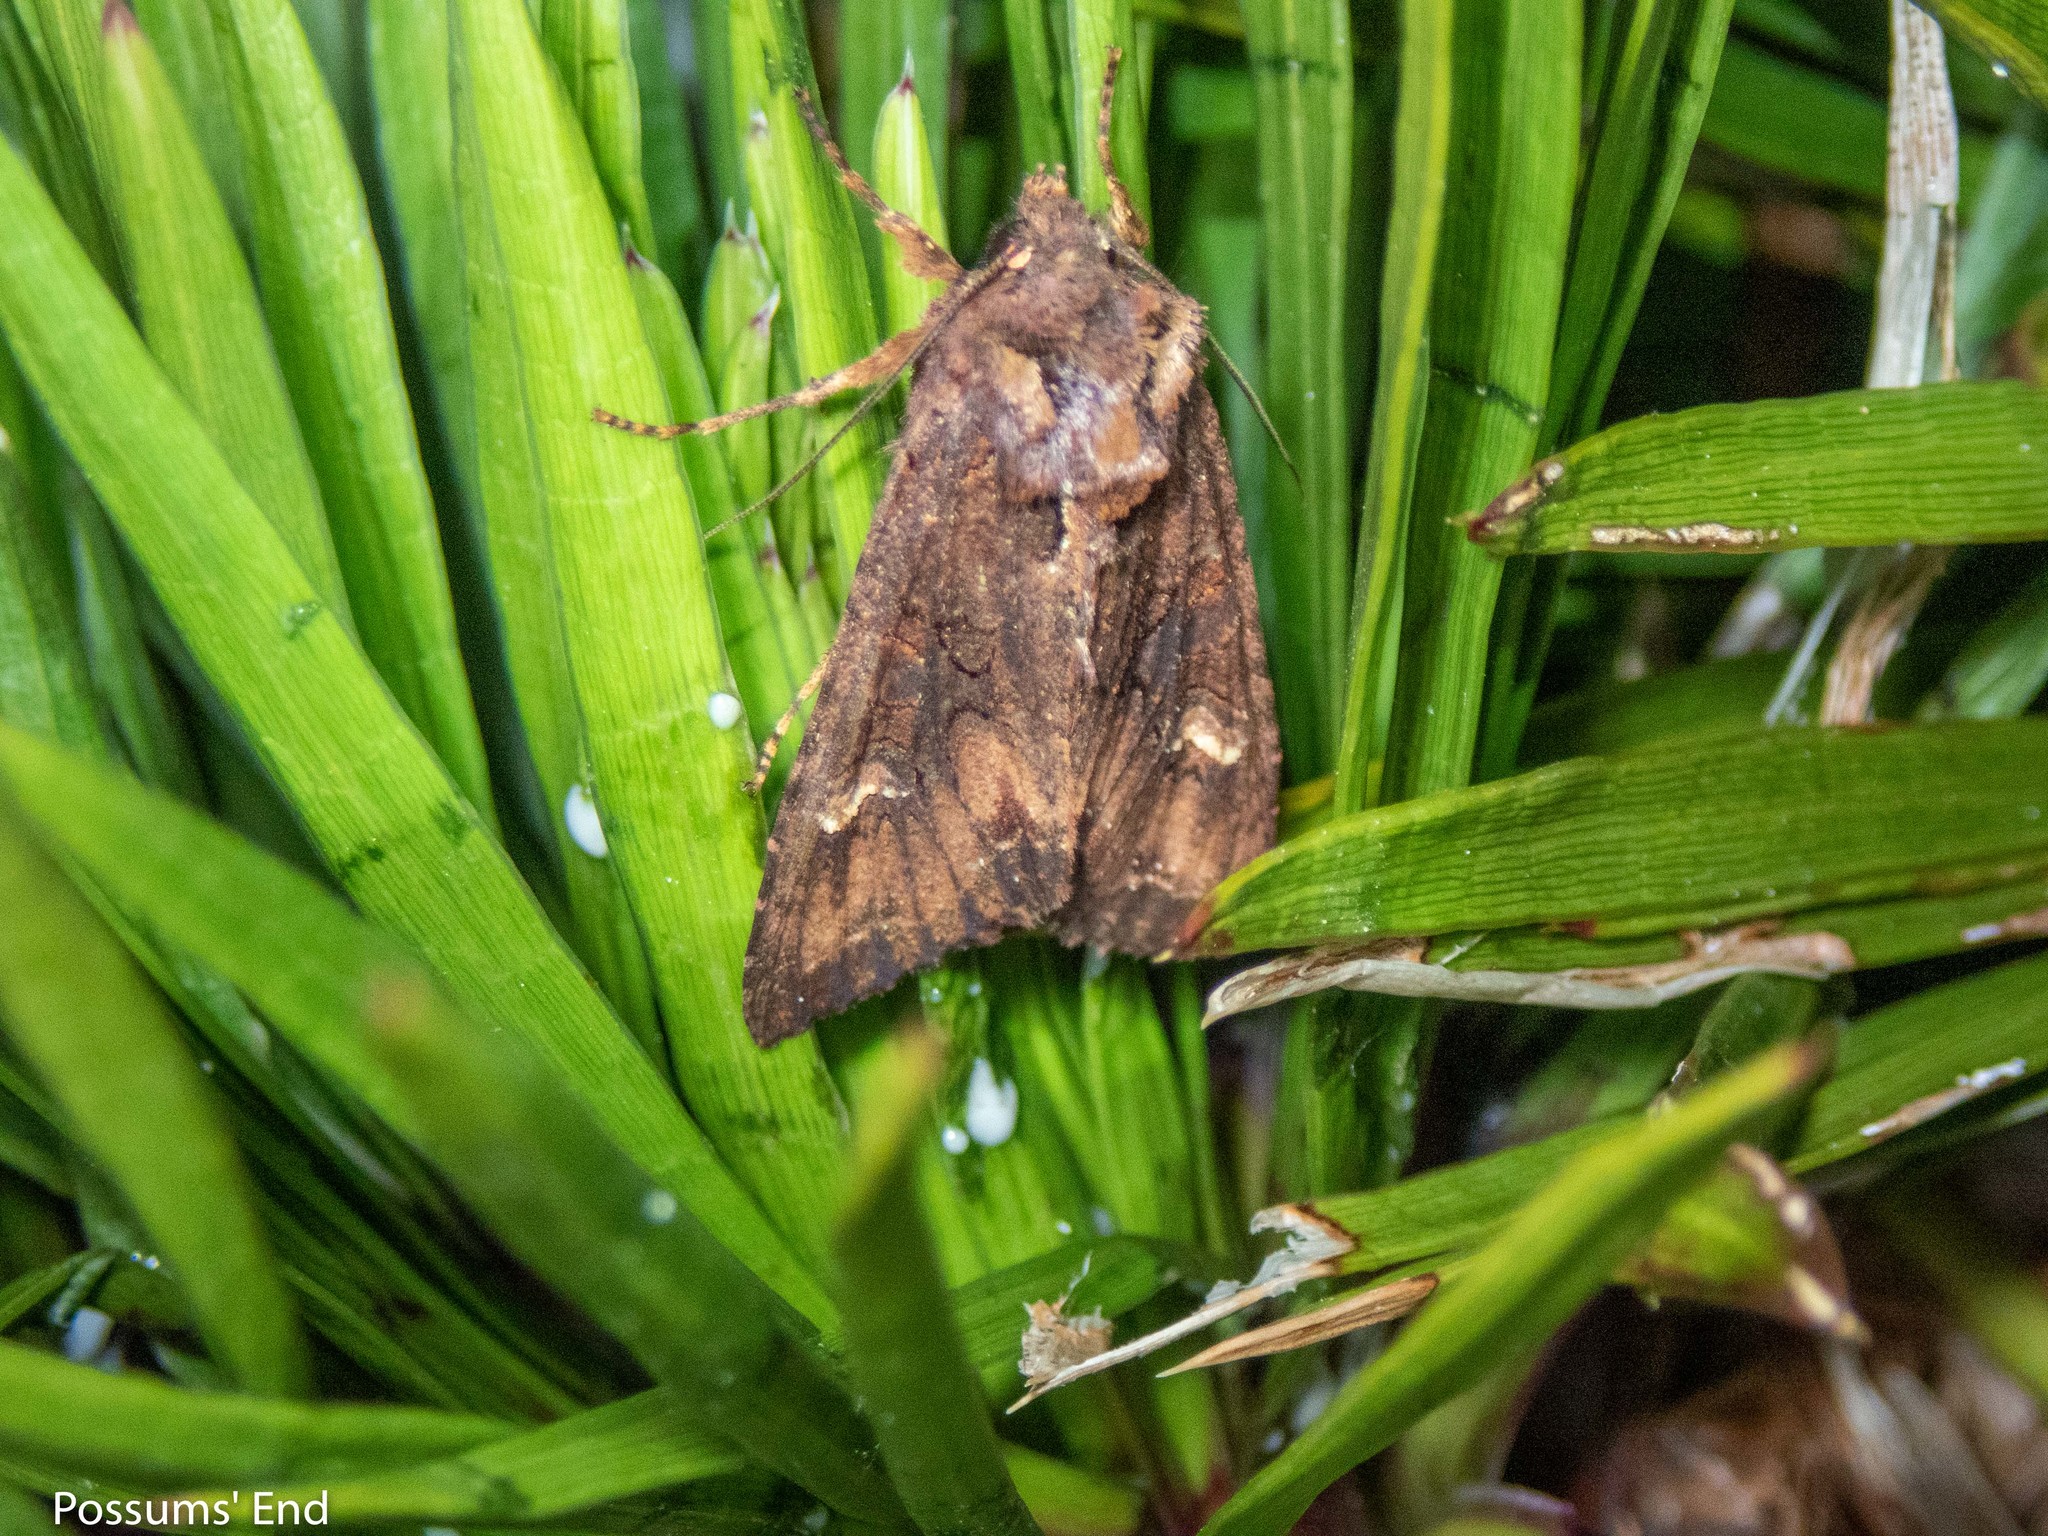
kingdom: Animalia
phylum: Arthropoda
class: Insecta
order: Lepidoptera
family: Noctuidae
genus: Meterana
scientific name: Meterana dotata
